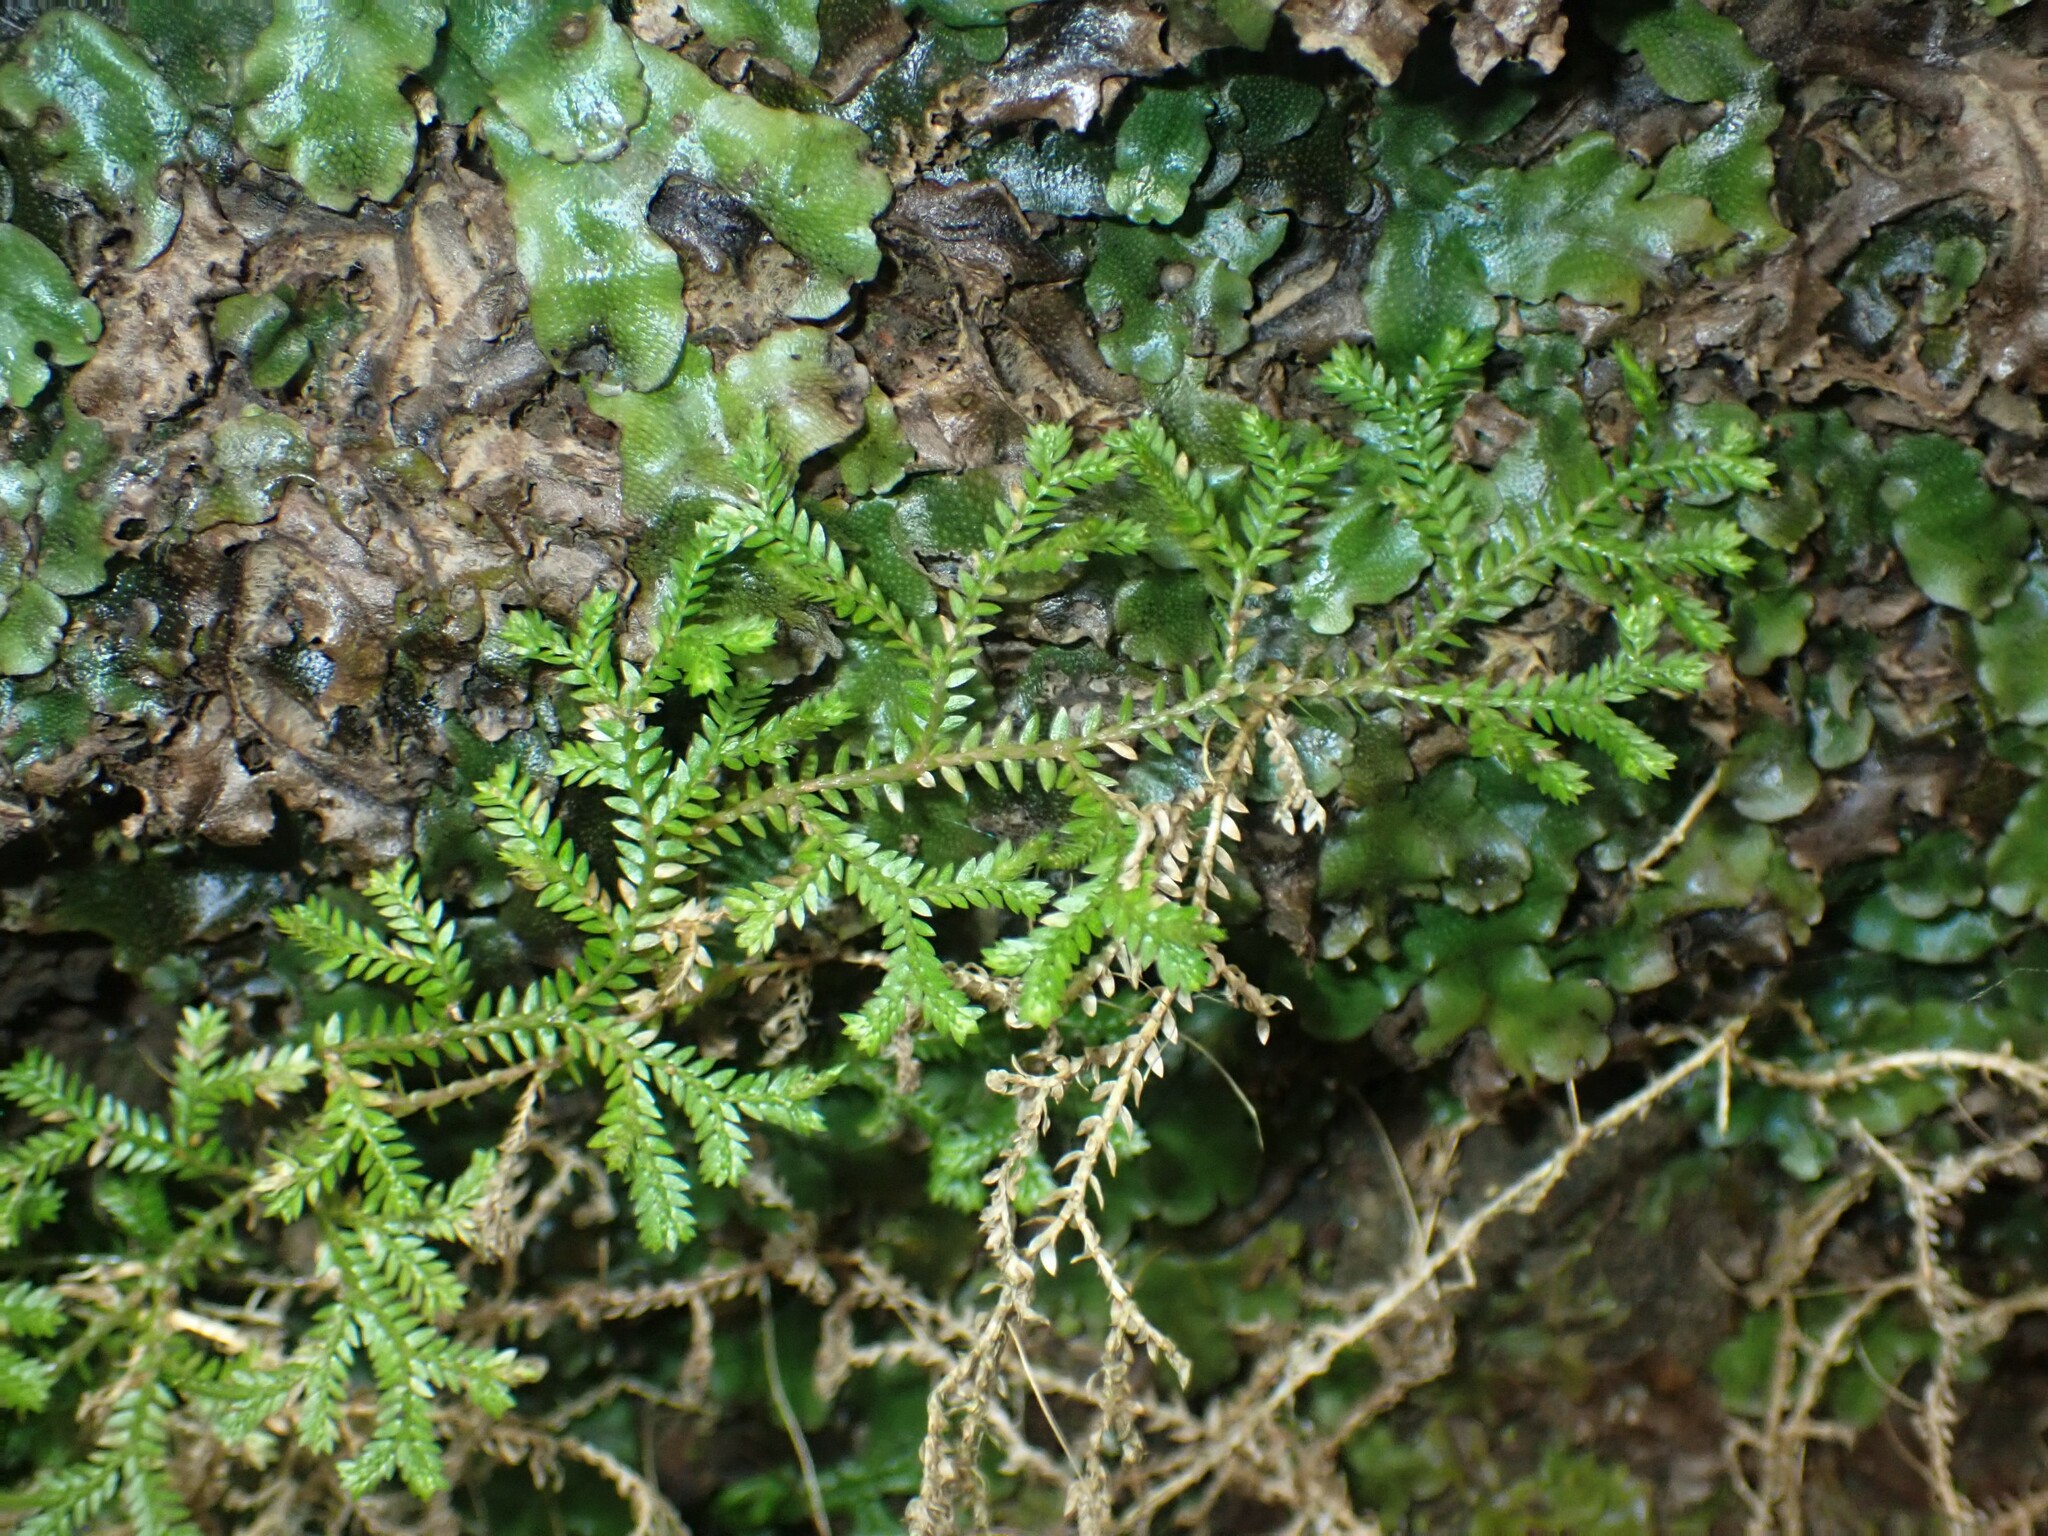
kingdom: Plantae
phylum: Tracheophyta
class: Lycopodiopsida
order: Selaginellales
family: Selaginellaceae
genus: Selaginella
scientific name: Selaginella kraussiana
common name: Krauss' spikemoss
